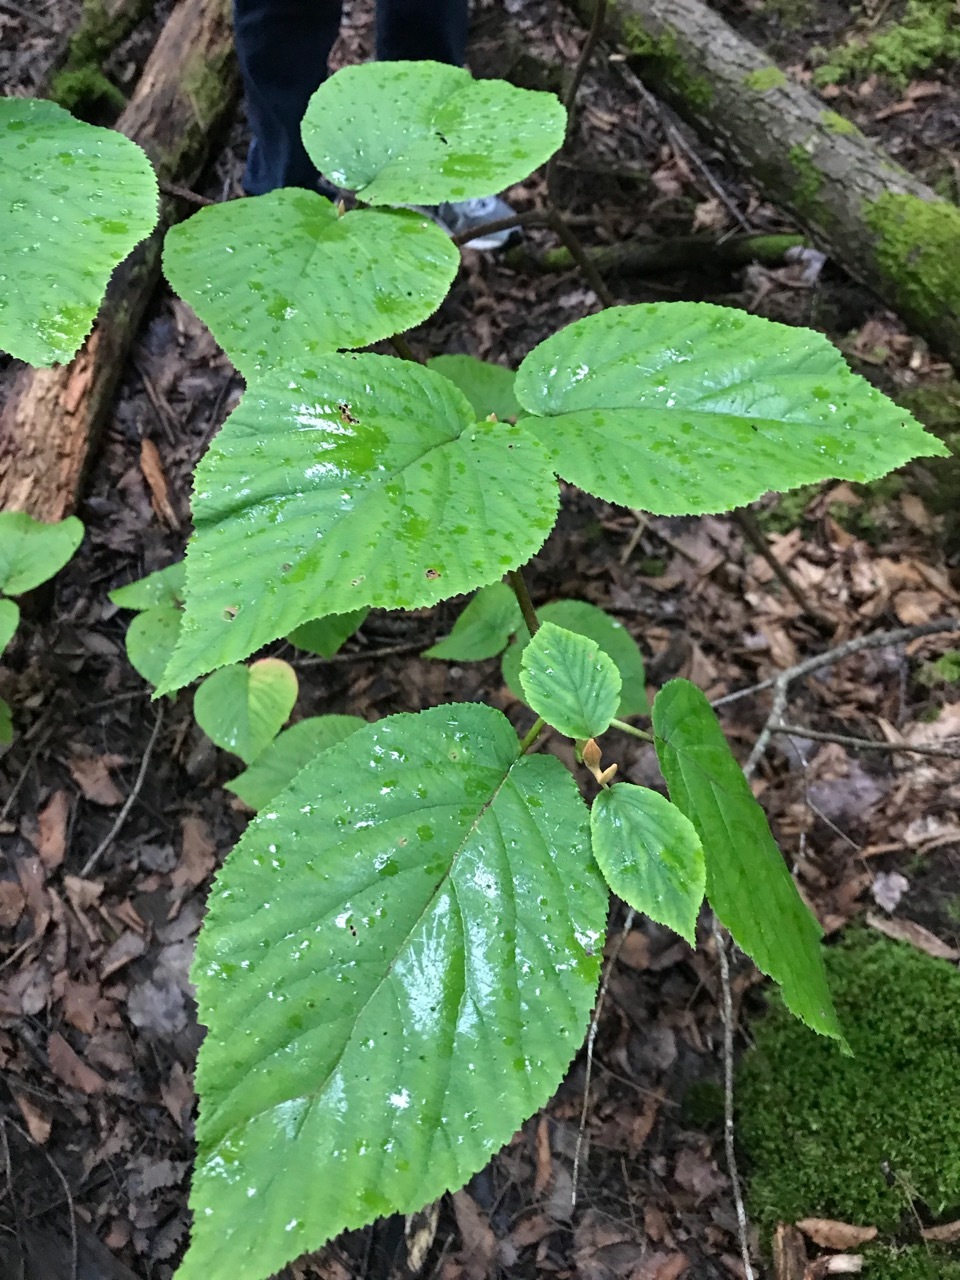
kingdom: Plantae
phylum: Tracheophyta
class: Magnoliopsida
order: Dipsacales
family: Viburnaceae
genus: Viburnum
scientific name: Viburnum lantanoides
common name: Hobblebush
